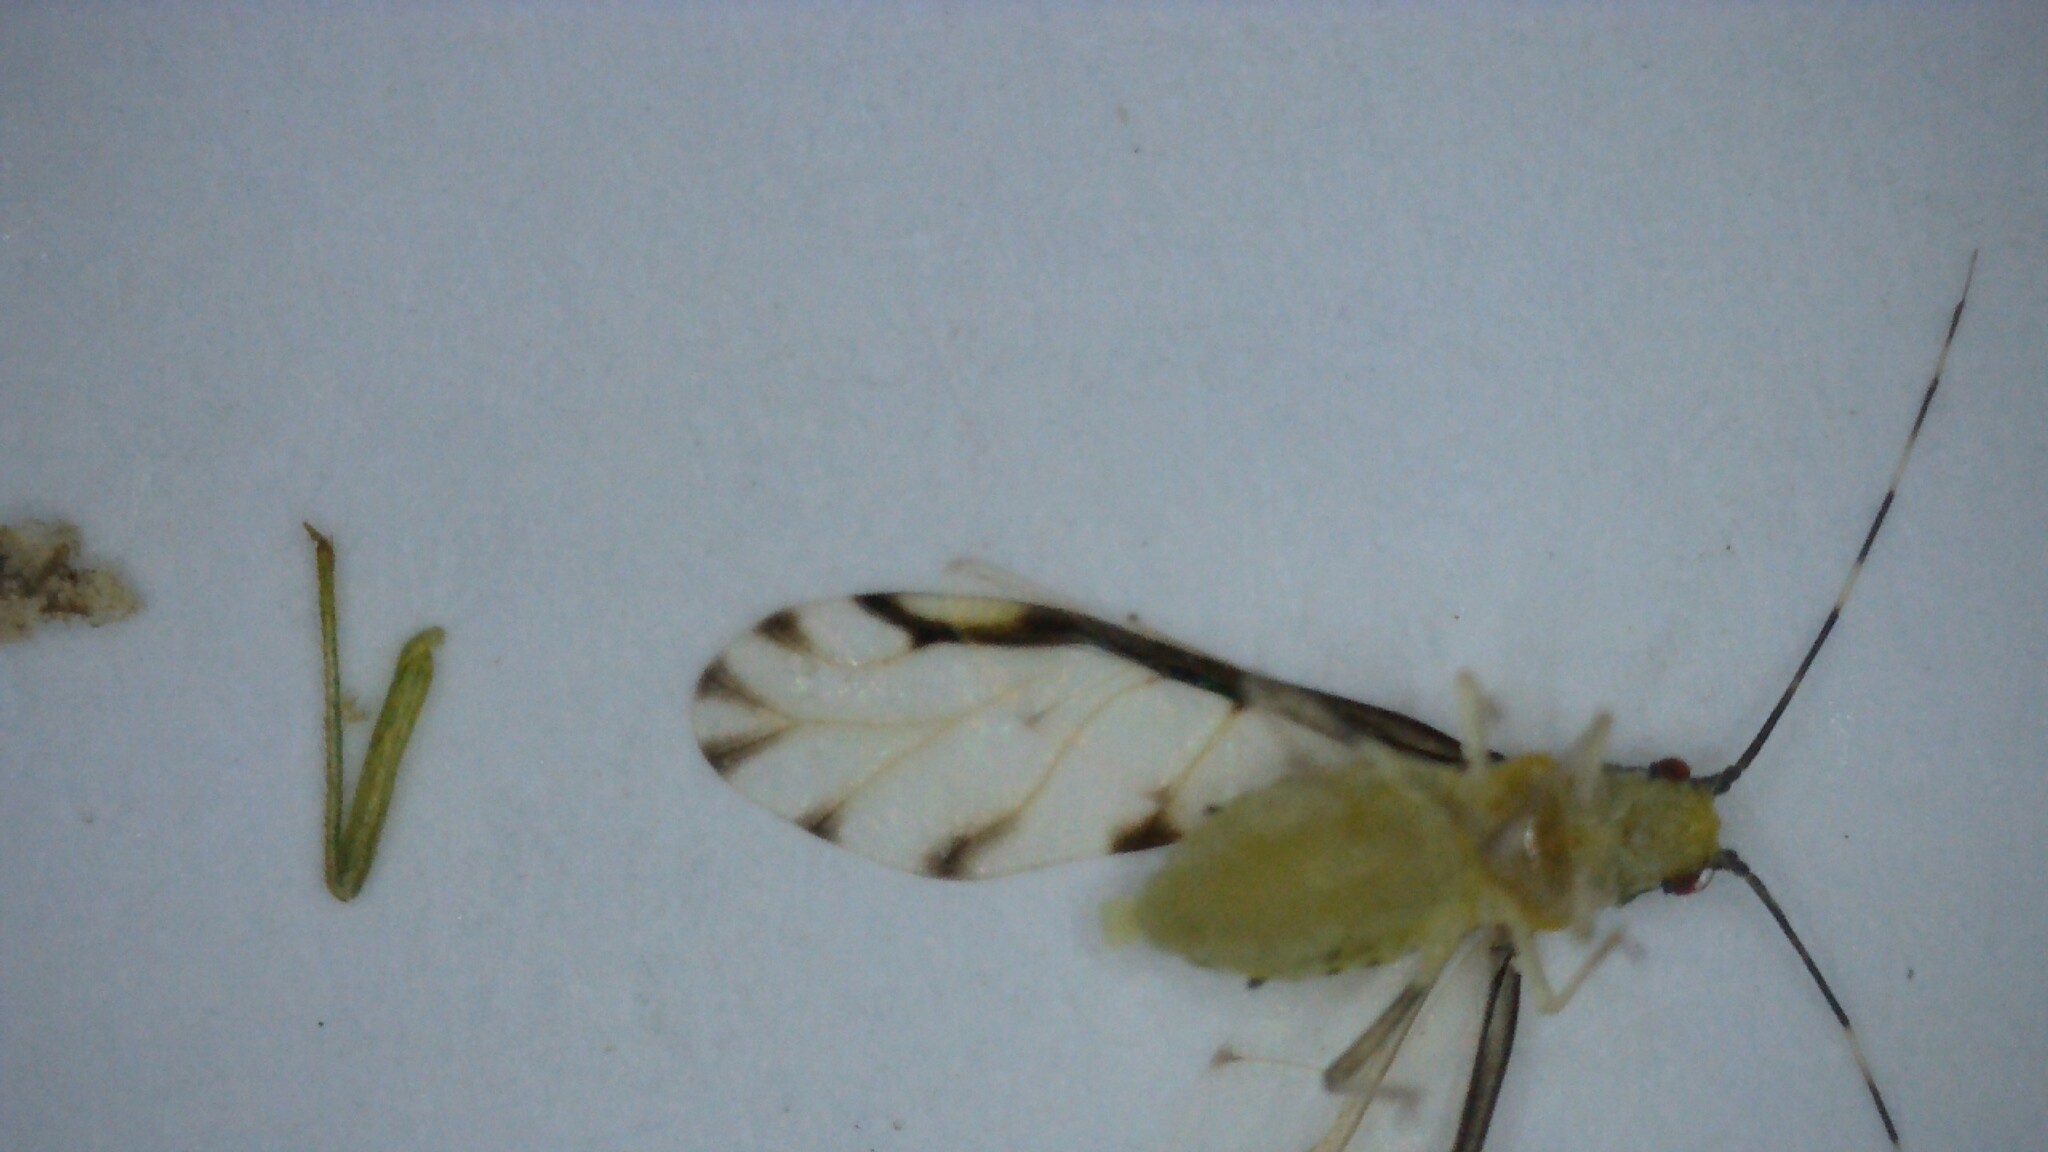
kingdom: Animalia
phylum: Arthropoda
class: Insecta
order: Hemiptera
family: Aphididae
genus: Eucallipterus
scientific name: Eucallipterus tiliae
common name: Aphid
